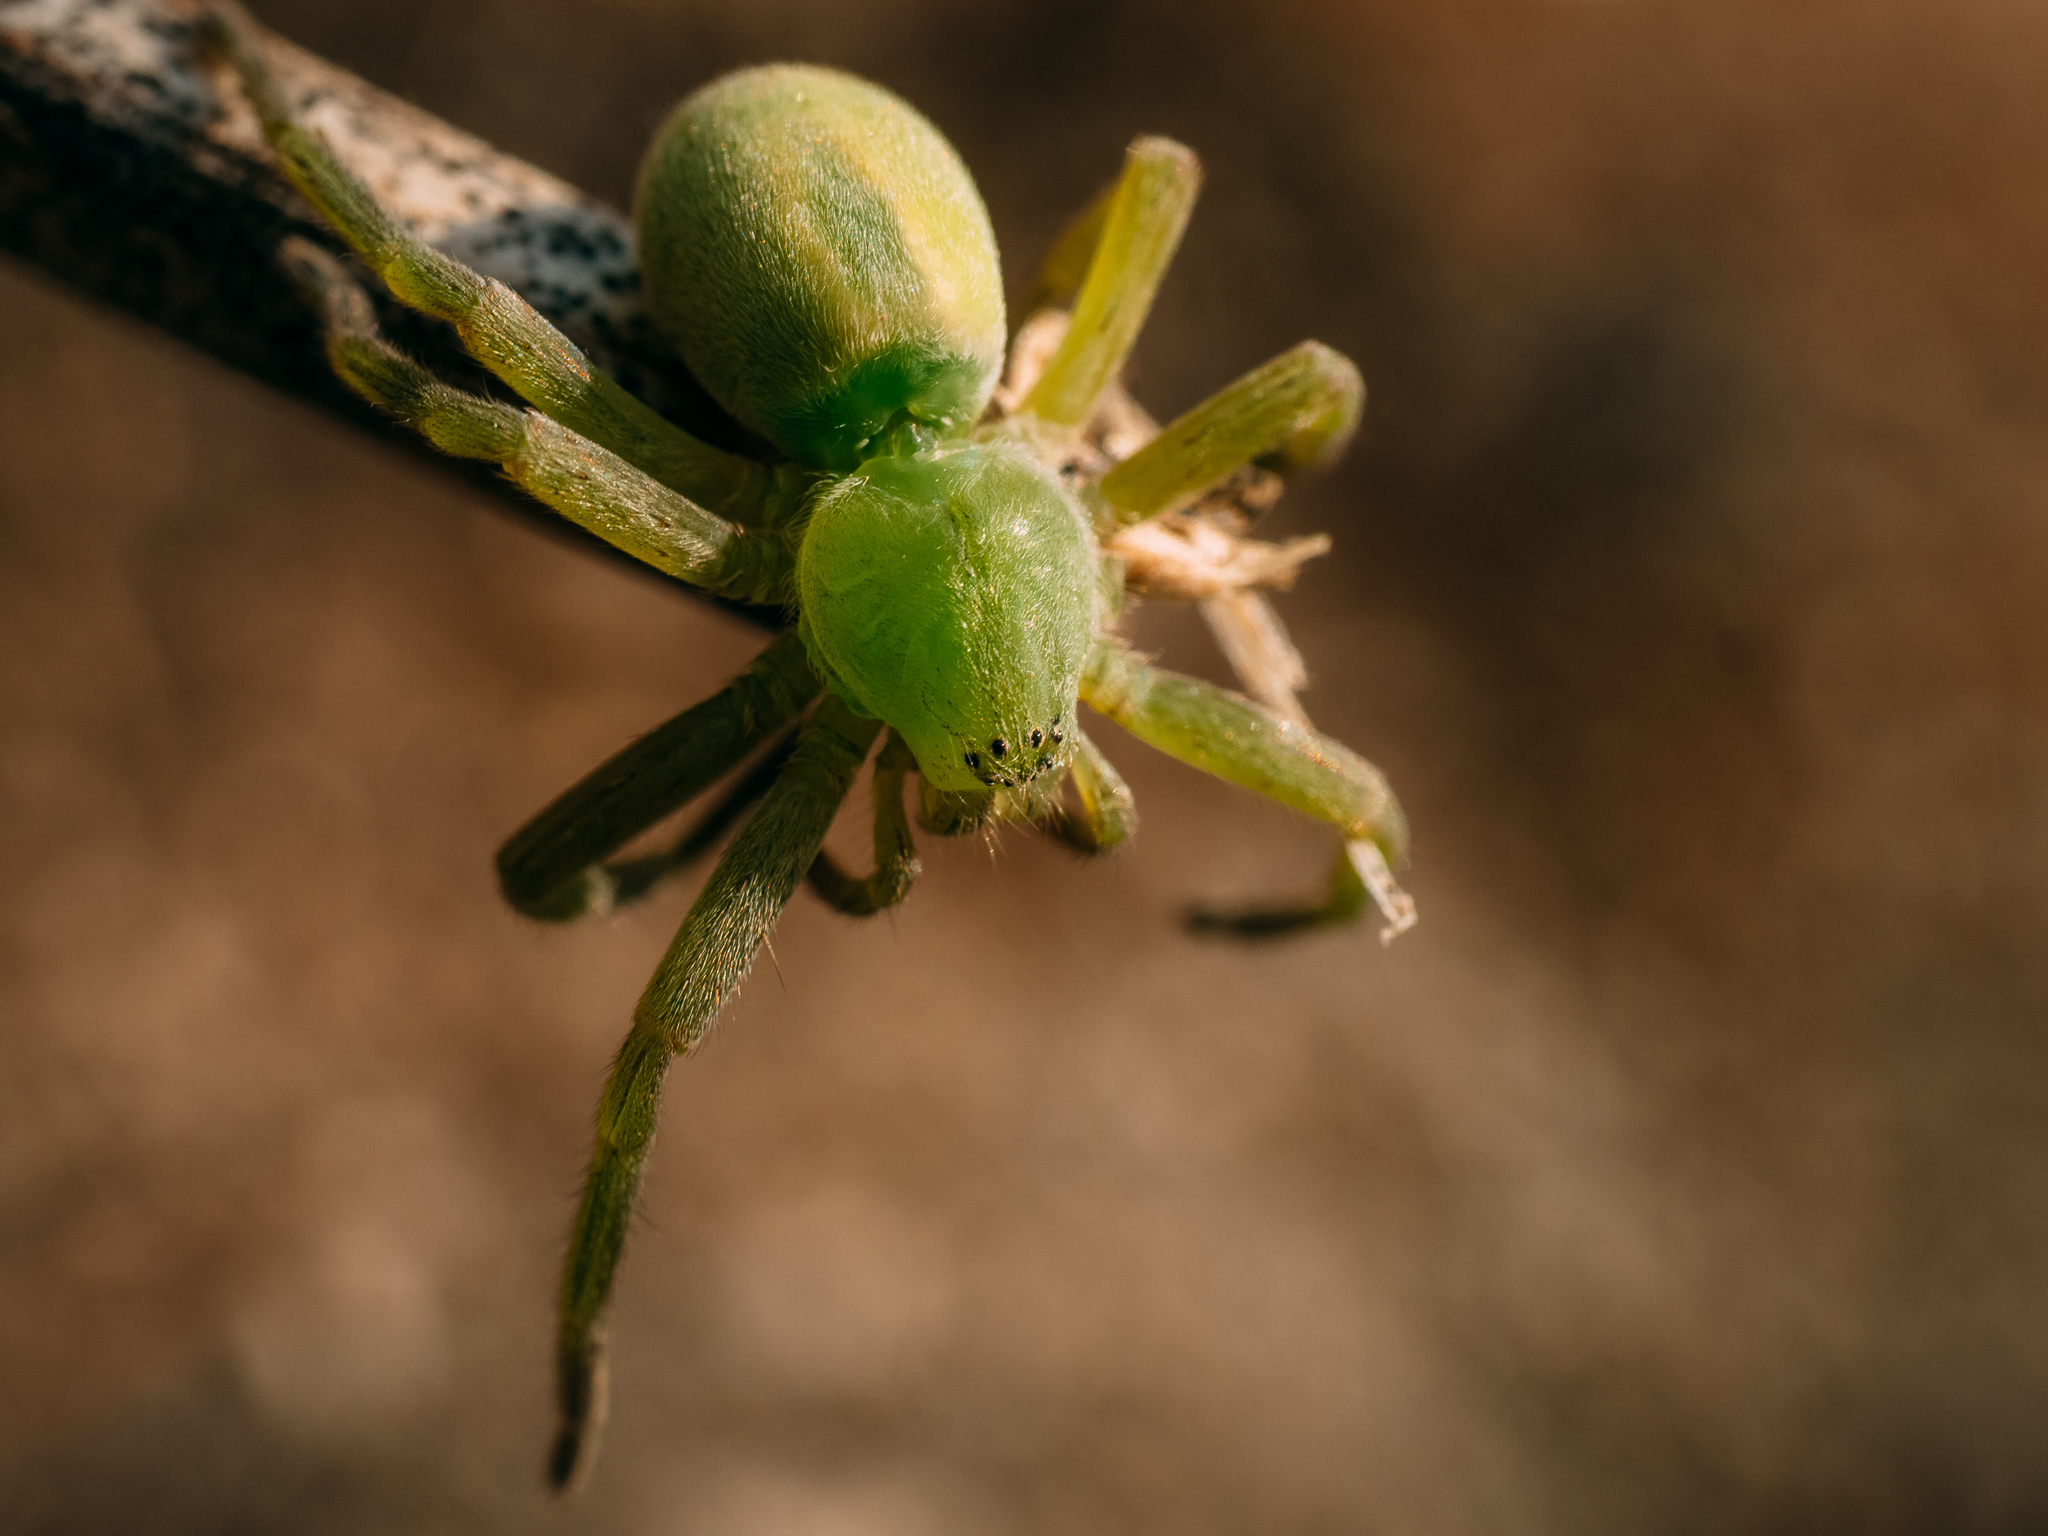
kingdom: Animalia
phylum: Arthropoda
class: Arachnida
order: Araneae
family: Sparassidae
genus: Micrommata
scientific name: Micrommata virescens
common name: Green spider
